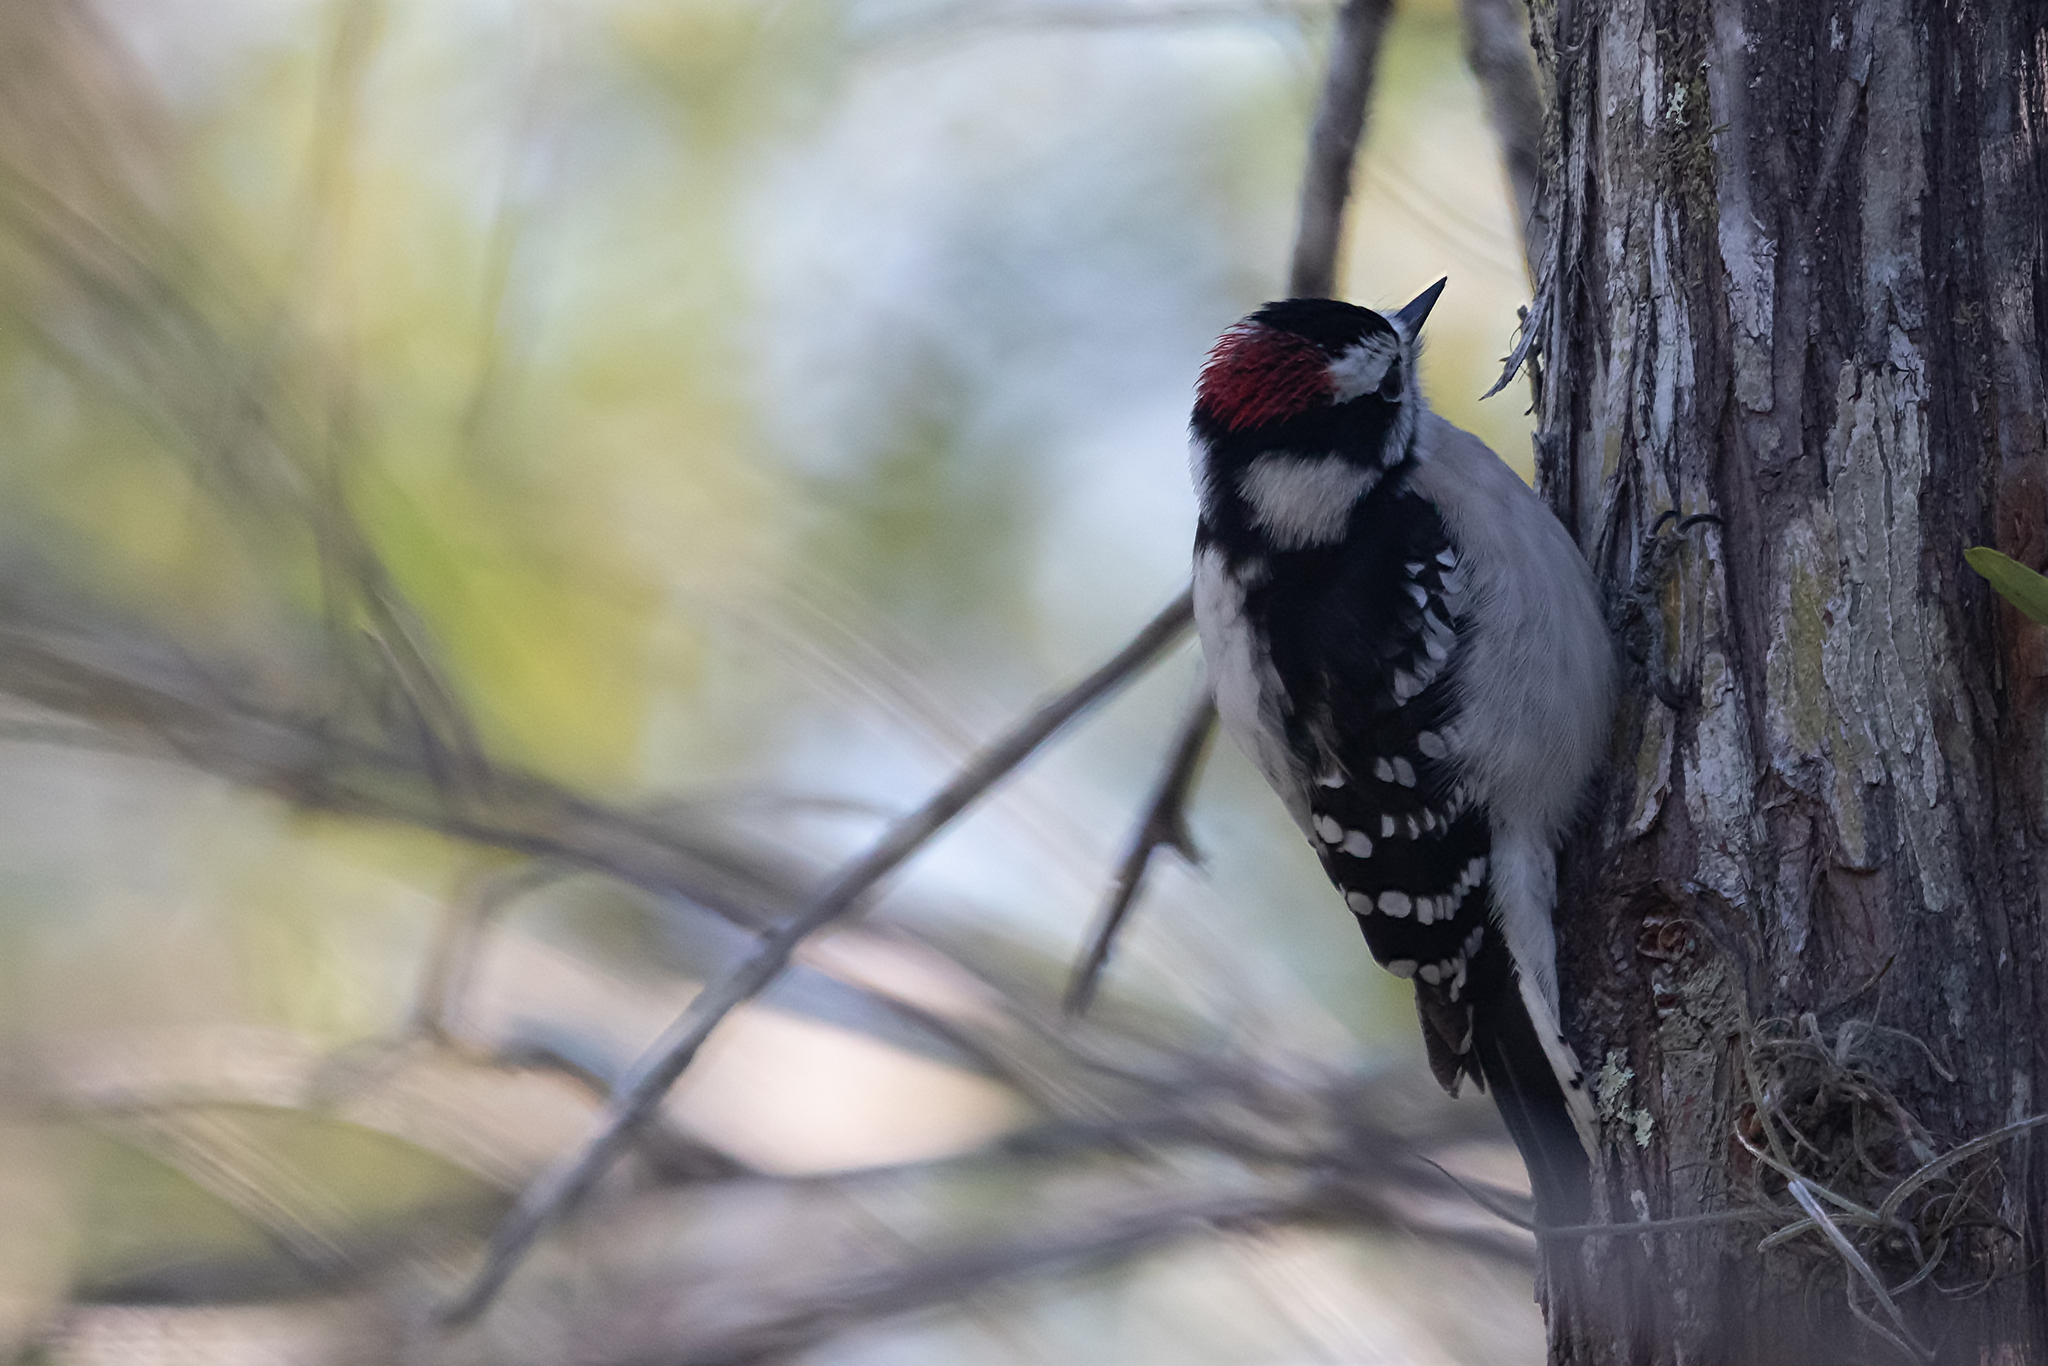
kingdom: Animalia
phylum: Chordata
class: Aves
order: Piciformes
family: Picidae
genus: Dryobates
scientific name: Dryobates pubescens
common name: Downy woodpecker
